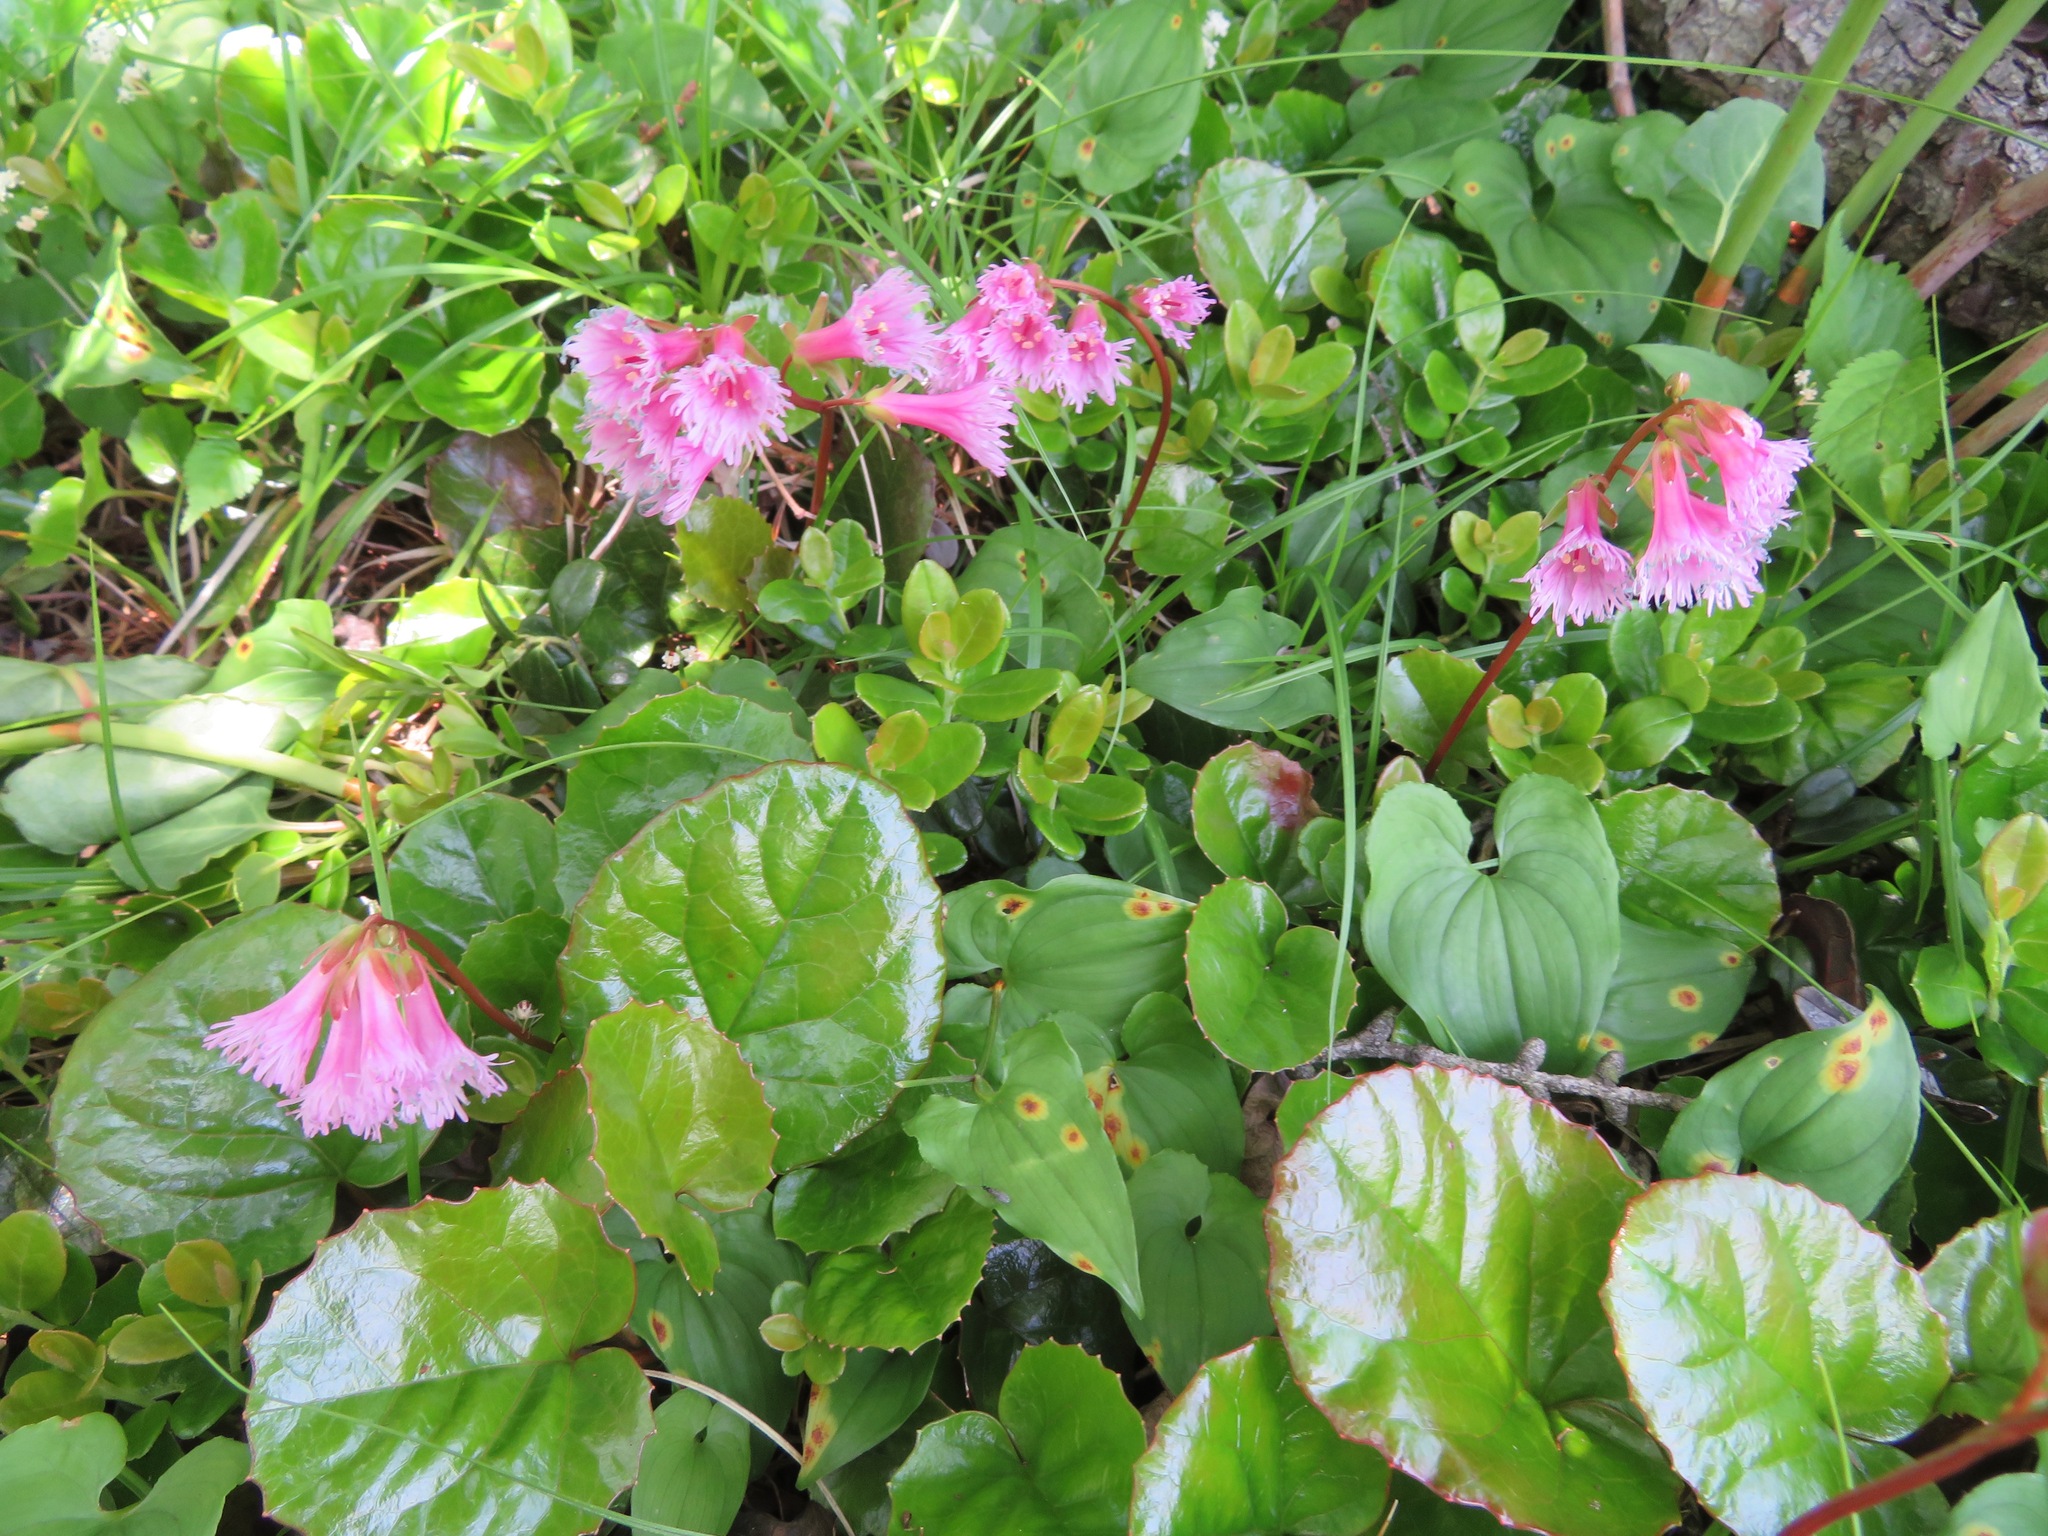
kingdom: Plantae
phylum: Tracheophyta
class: Magnoliopsida
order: Ericales
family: Diapensiaceae
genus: Schizocodon
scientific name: Schizocodon soldanelloides
